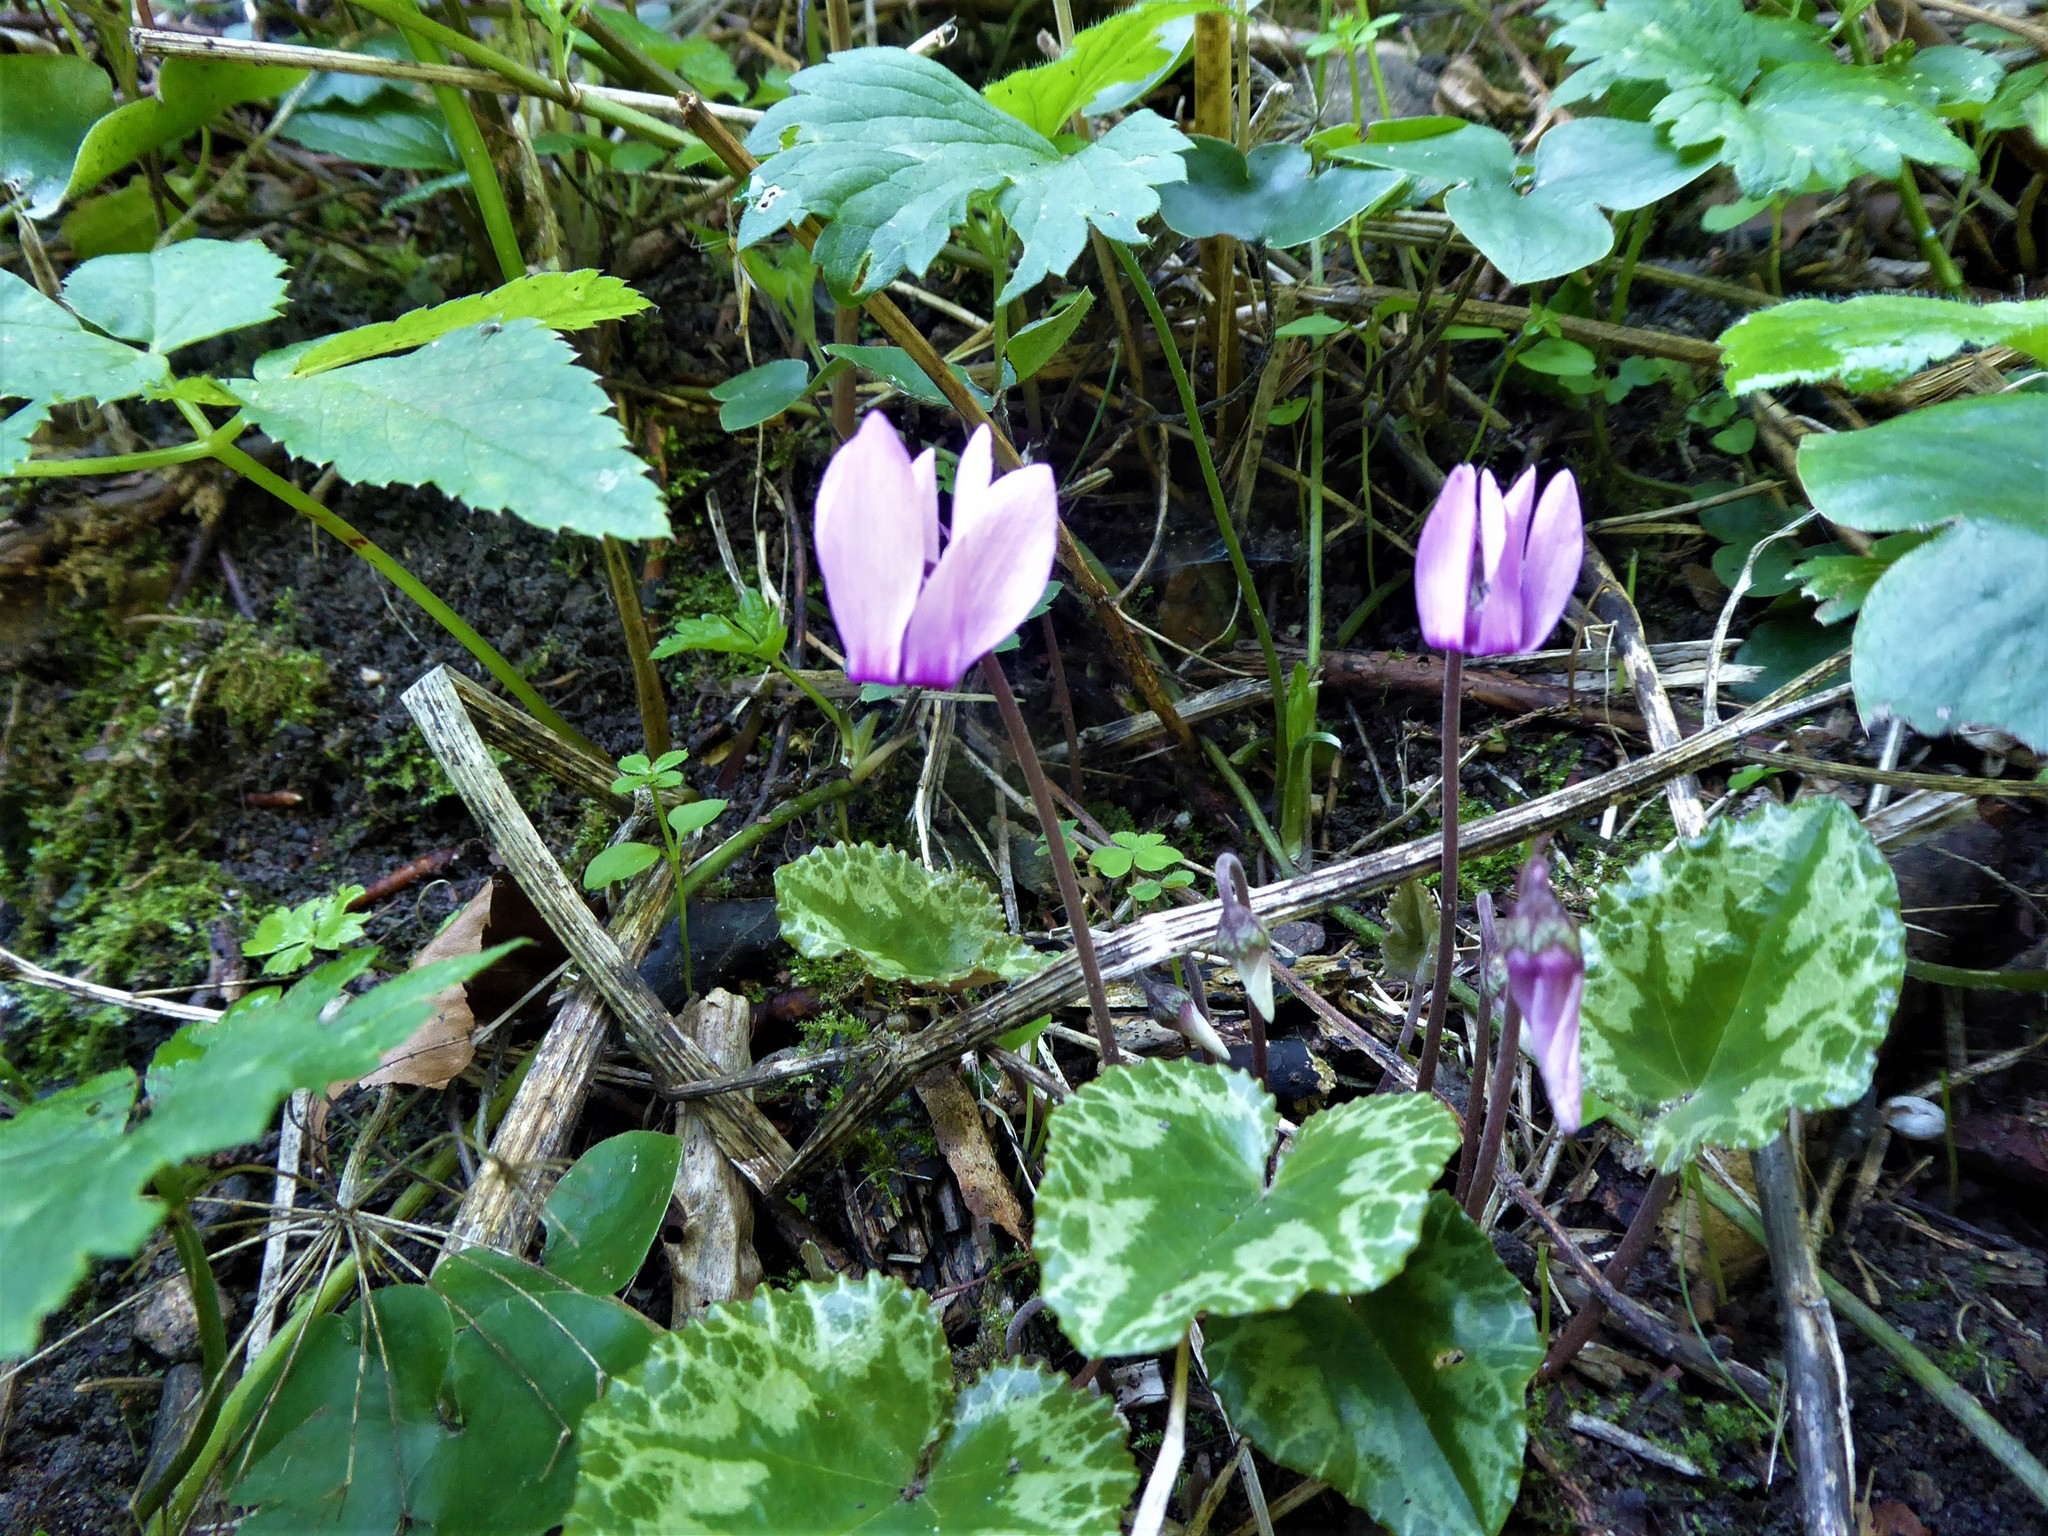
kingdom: Plantae
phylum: Tracheophyta
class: Magnoliopsida
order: Ericales
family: Primulaceae
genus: Cyclamen
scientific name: Cyclamen purpurascens
